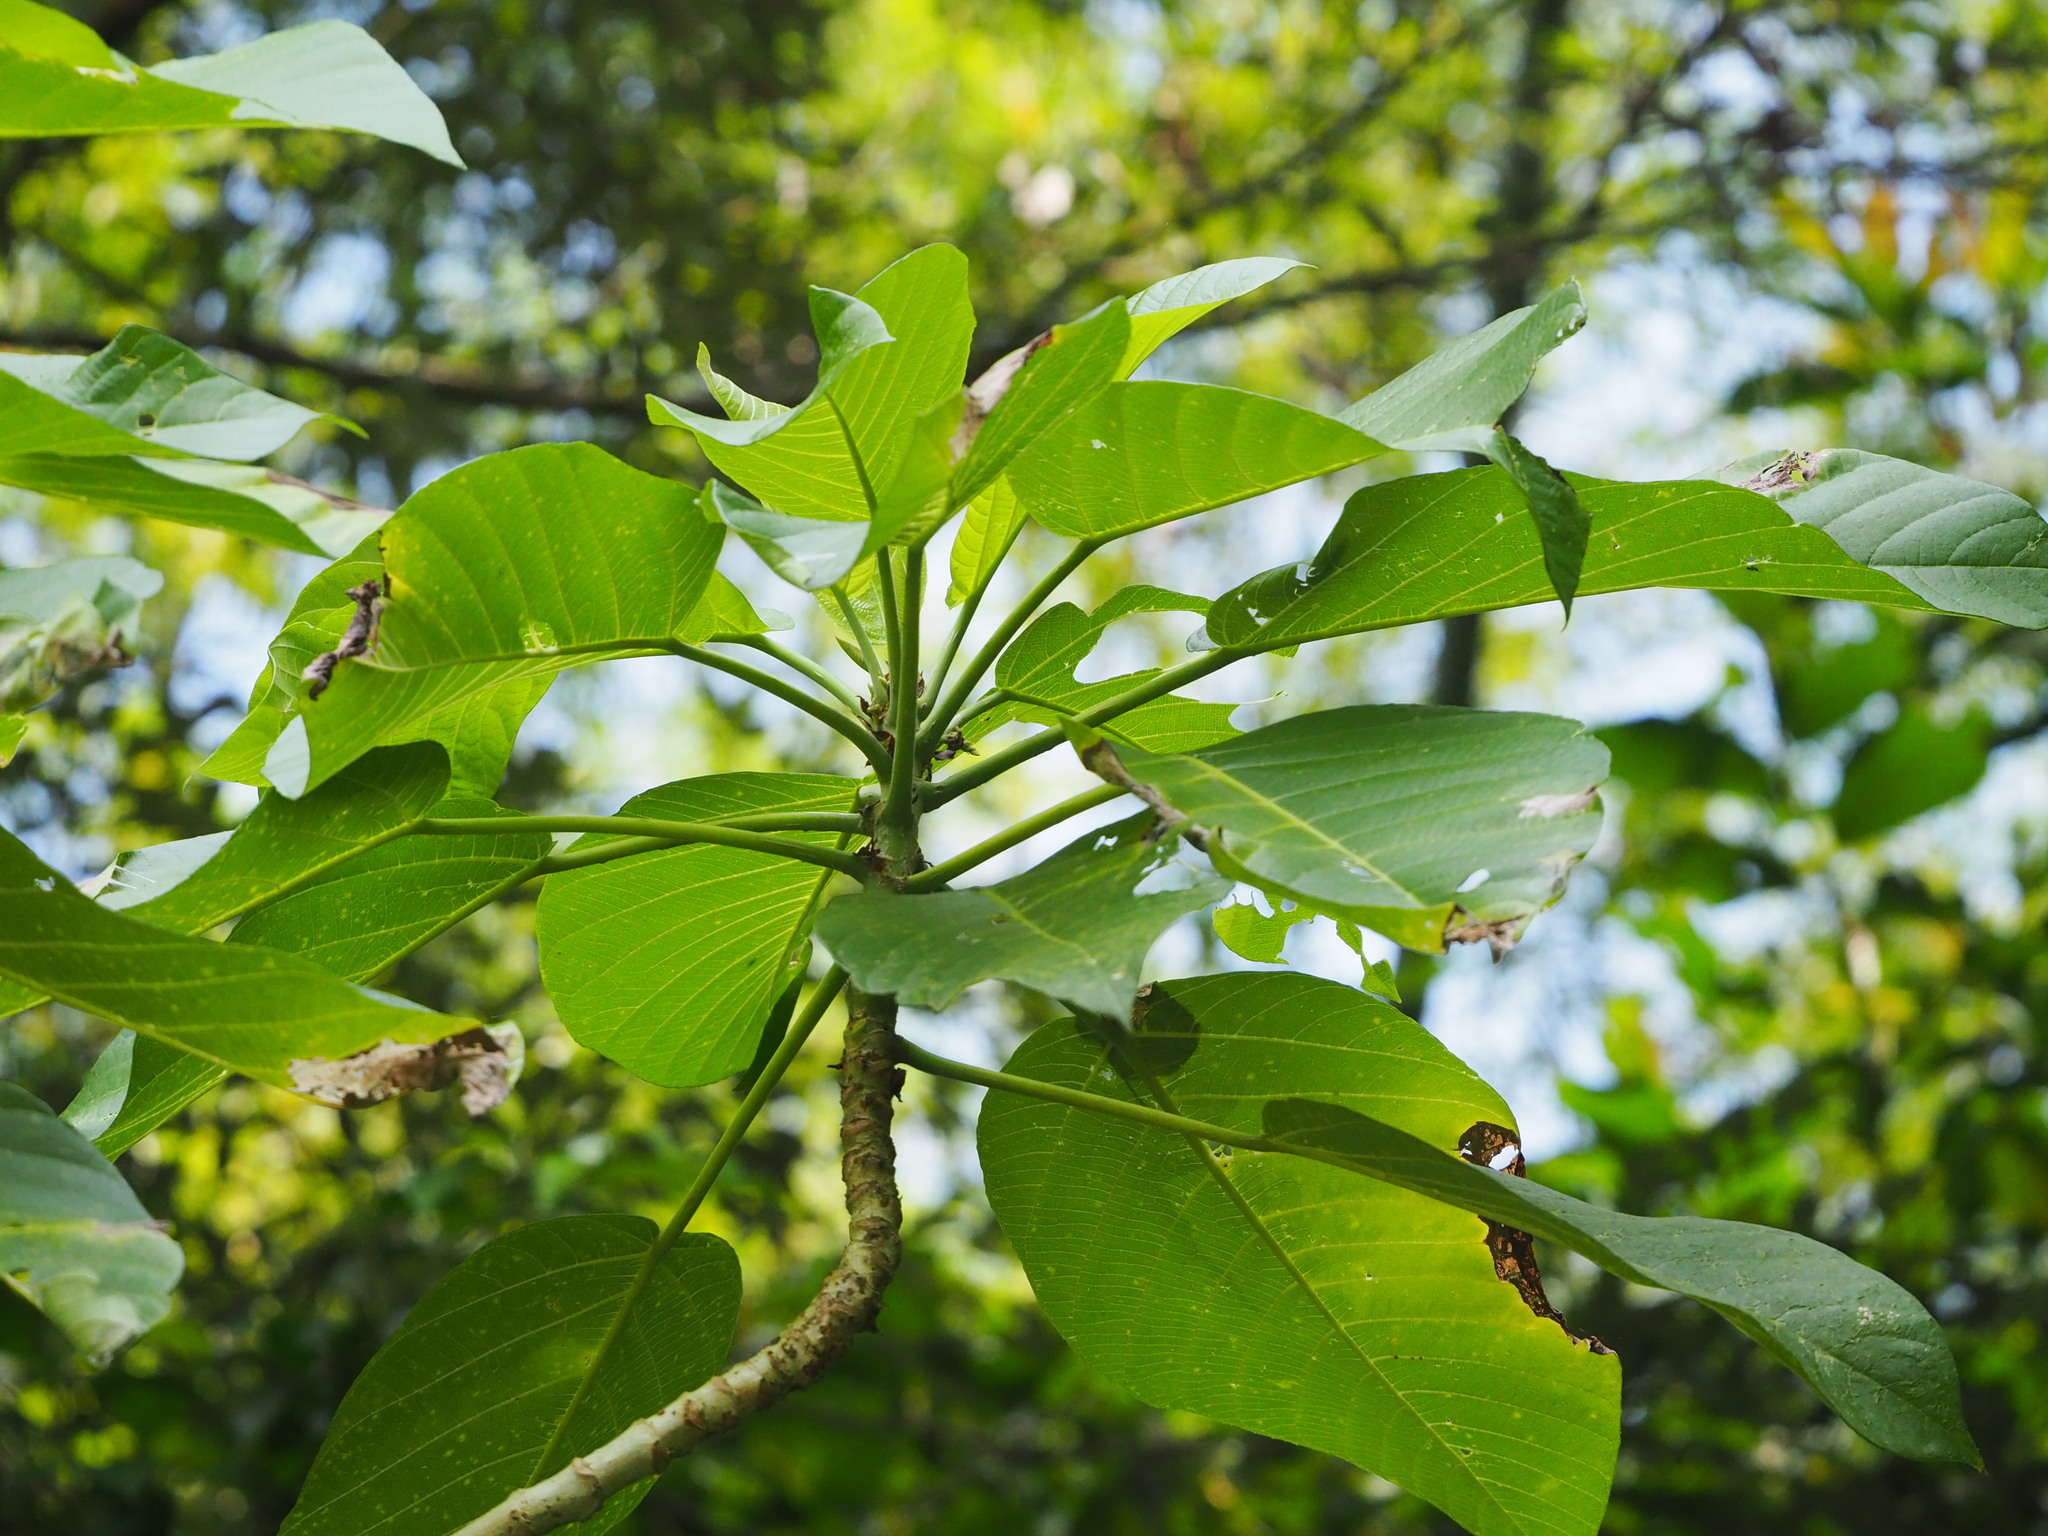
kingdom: Plantae
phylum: Tracheophyta
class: Magnoliopsida
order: Rosales
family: Urticaceae
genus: Dendrocnide
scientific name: Dendrocnide meyeniana
